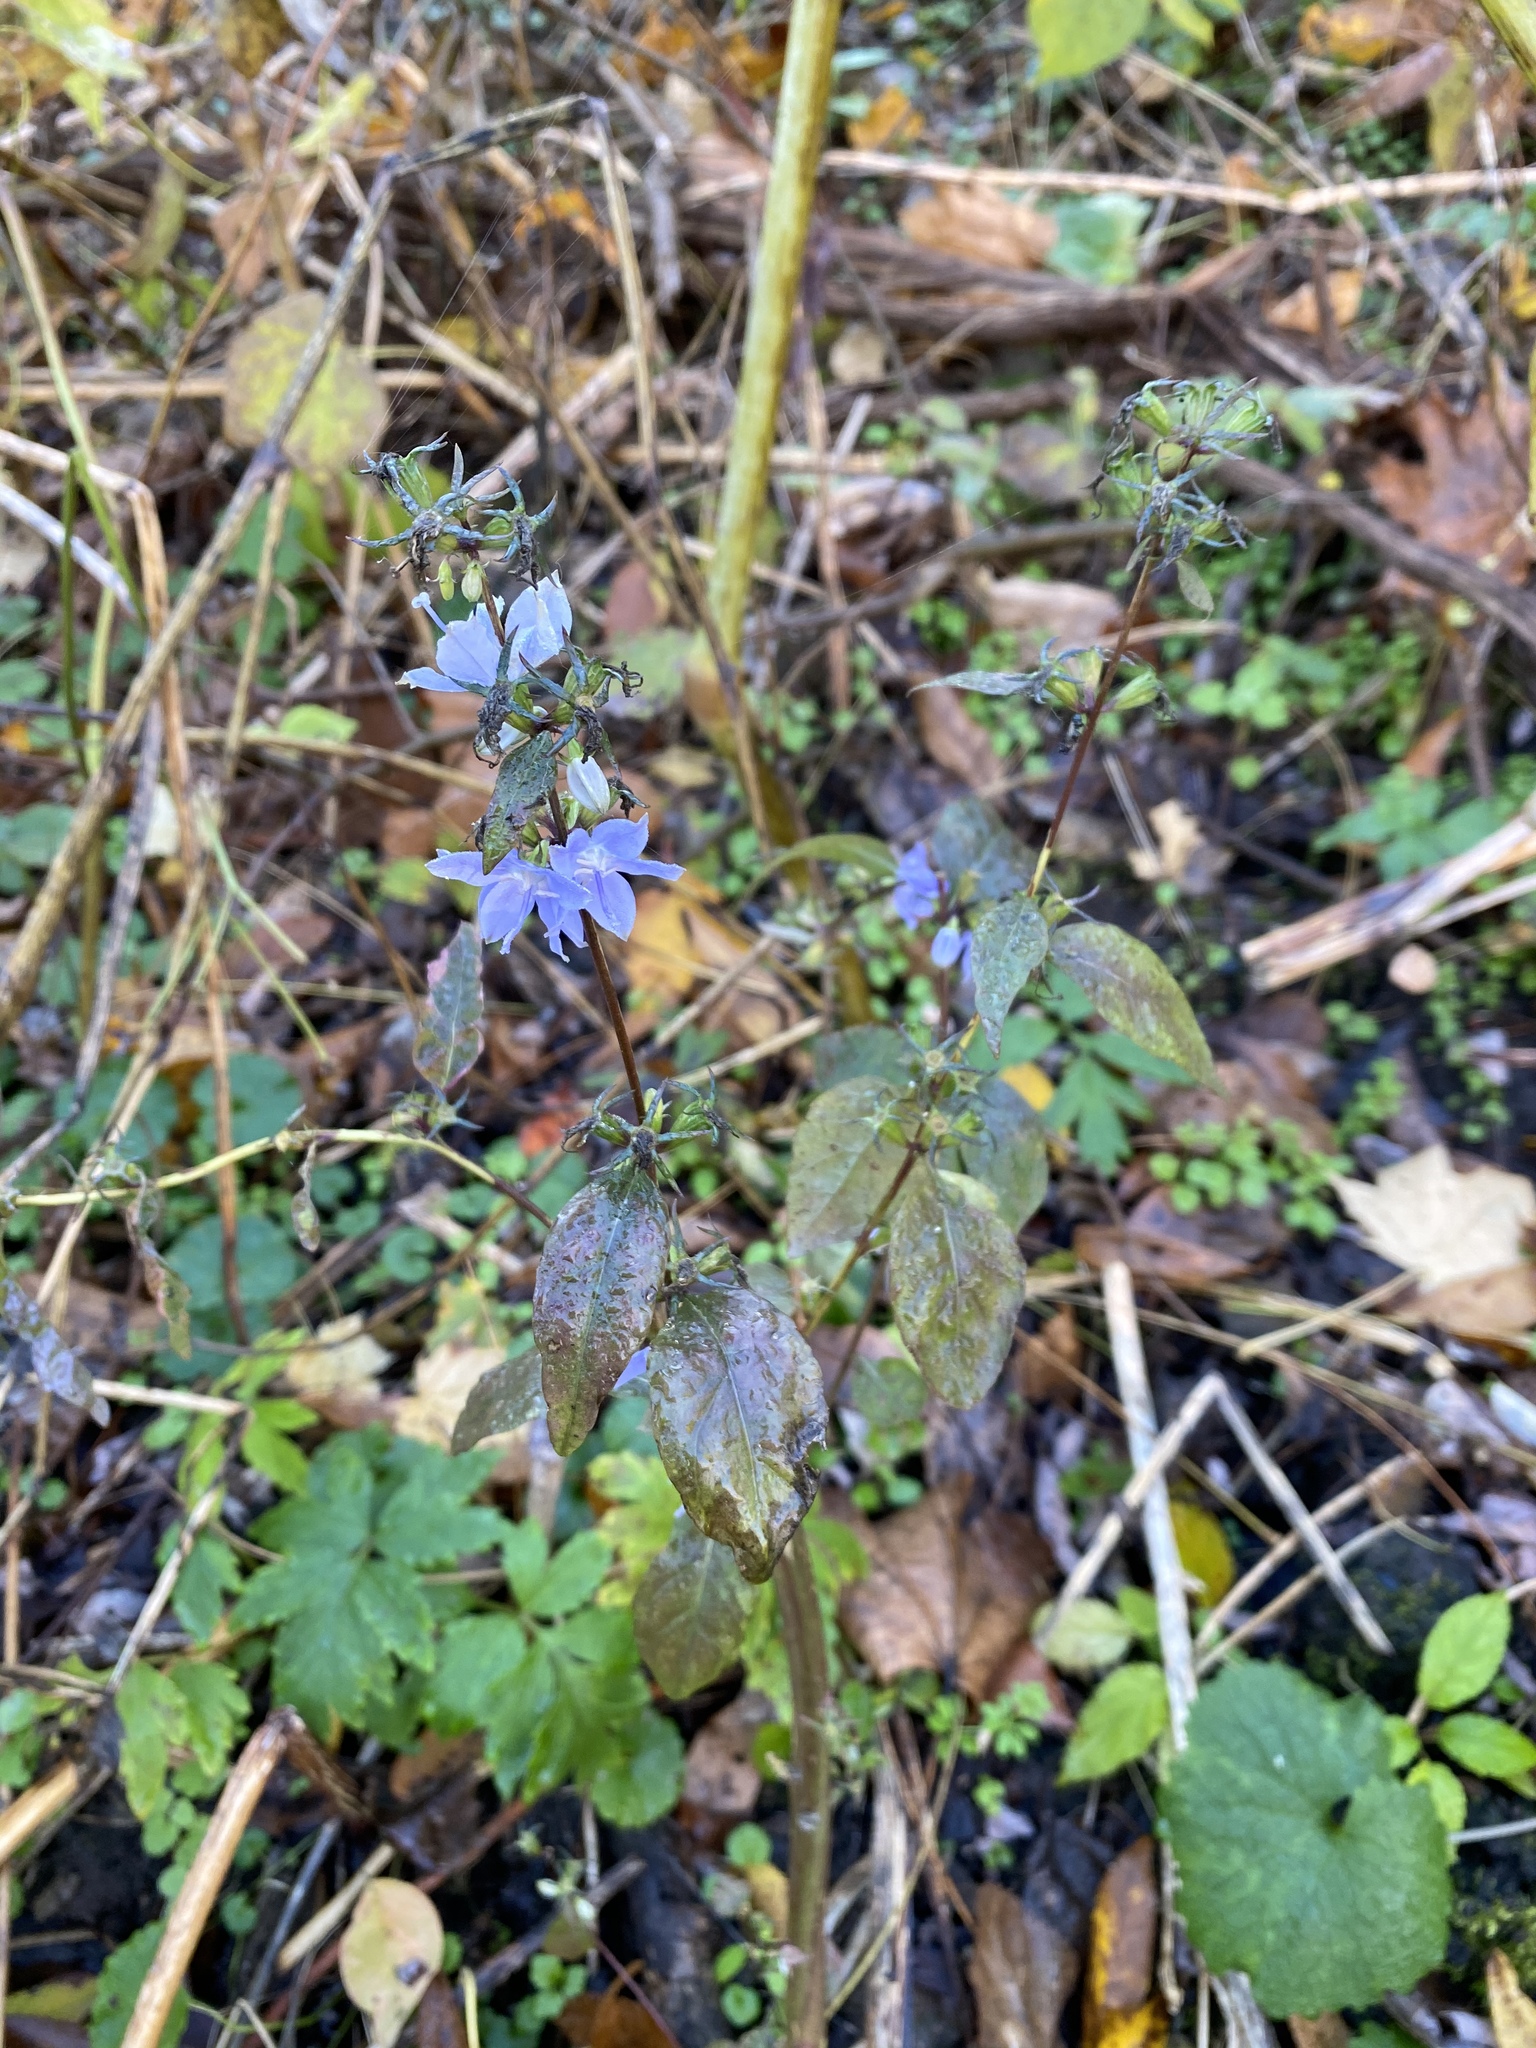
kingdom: Plantae
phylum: Tracheophyta
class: Magnoliopsida
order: Asterales
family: Campanulaceae
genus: Campanulastrum
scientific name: Campanulastrum americanum
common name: American bellflower
